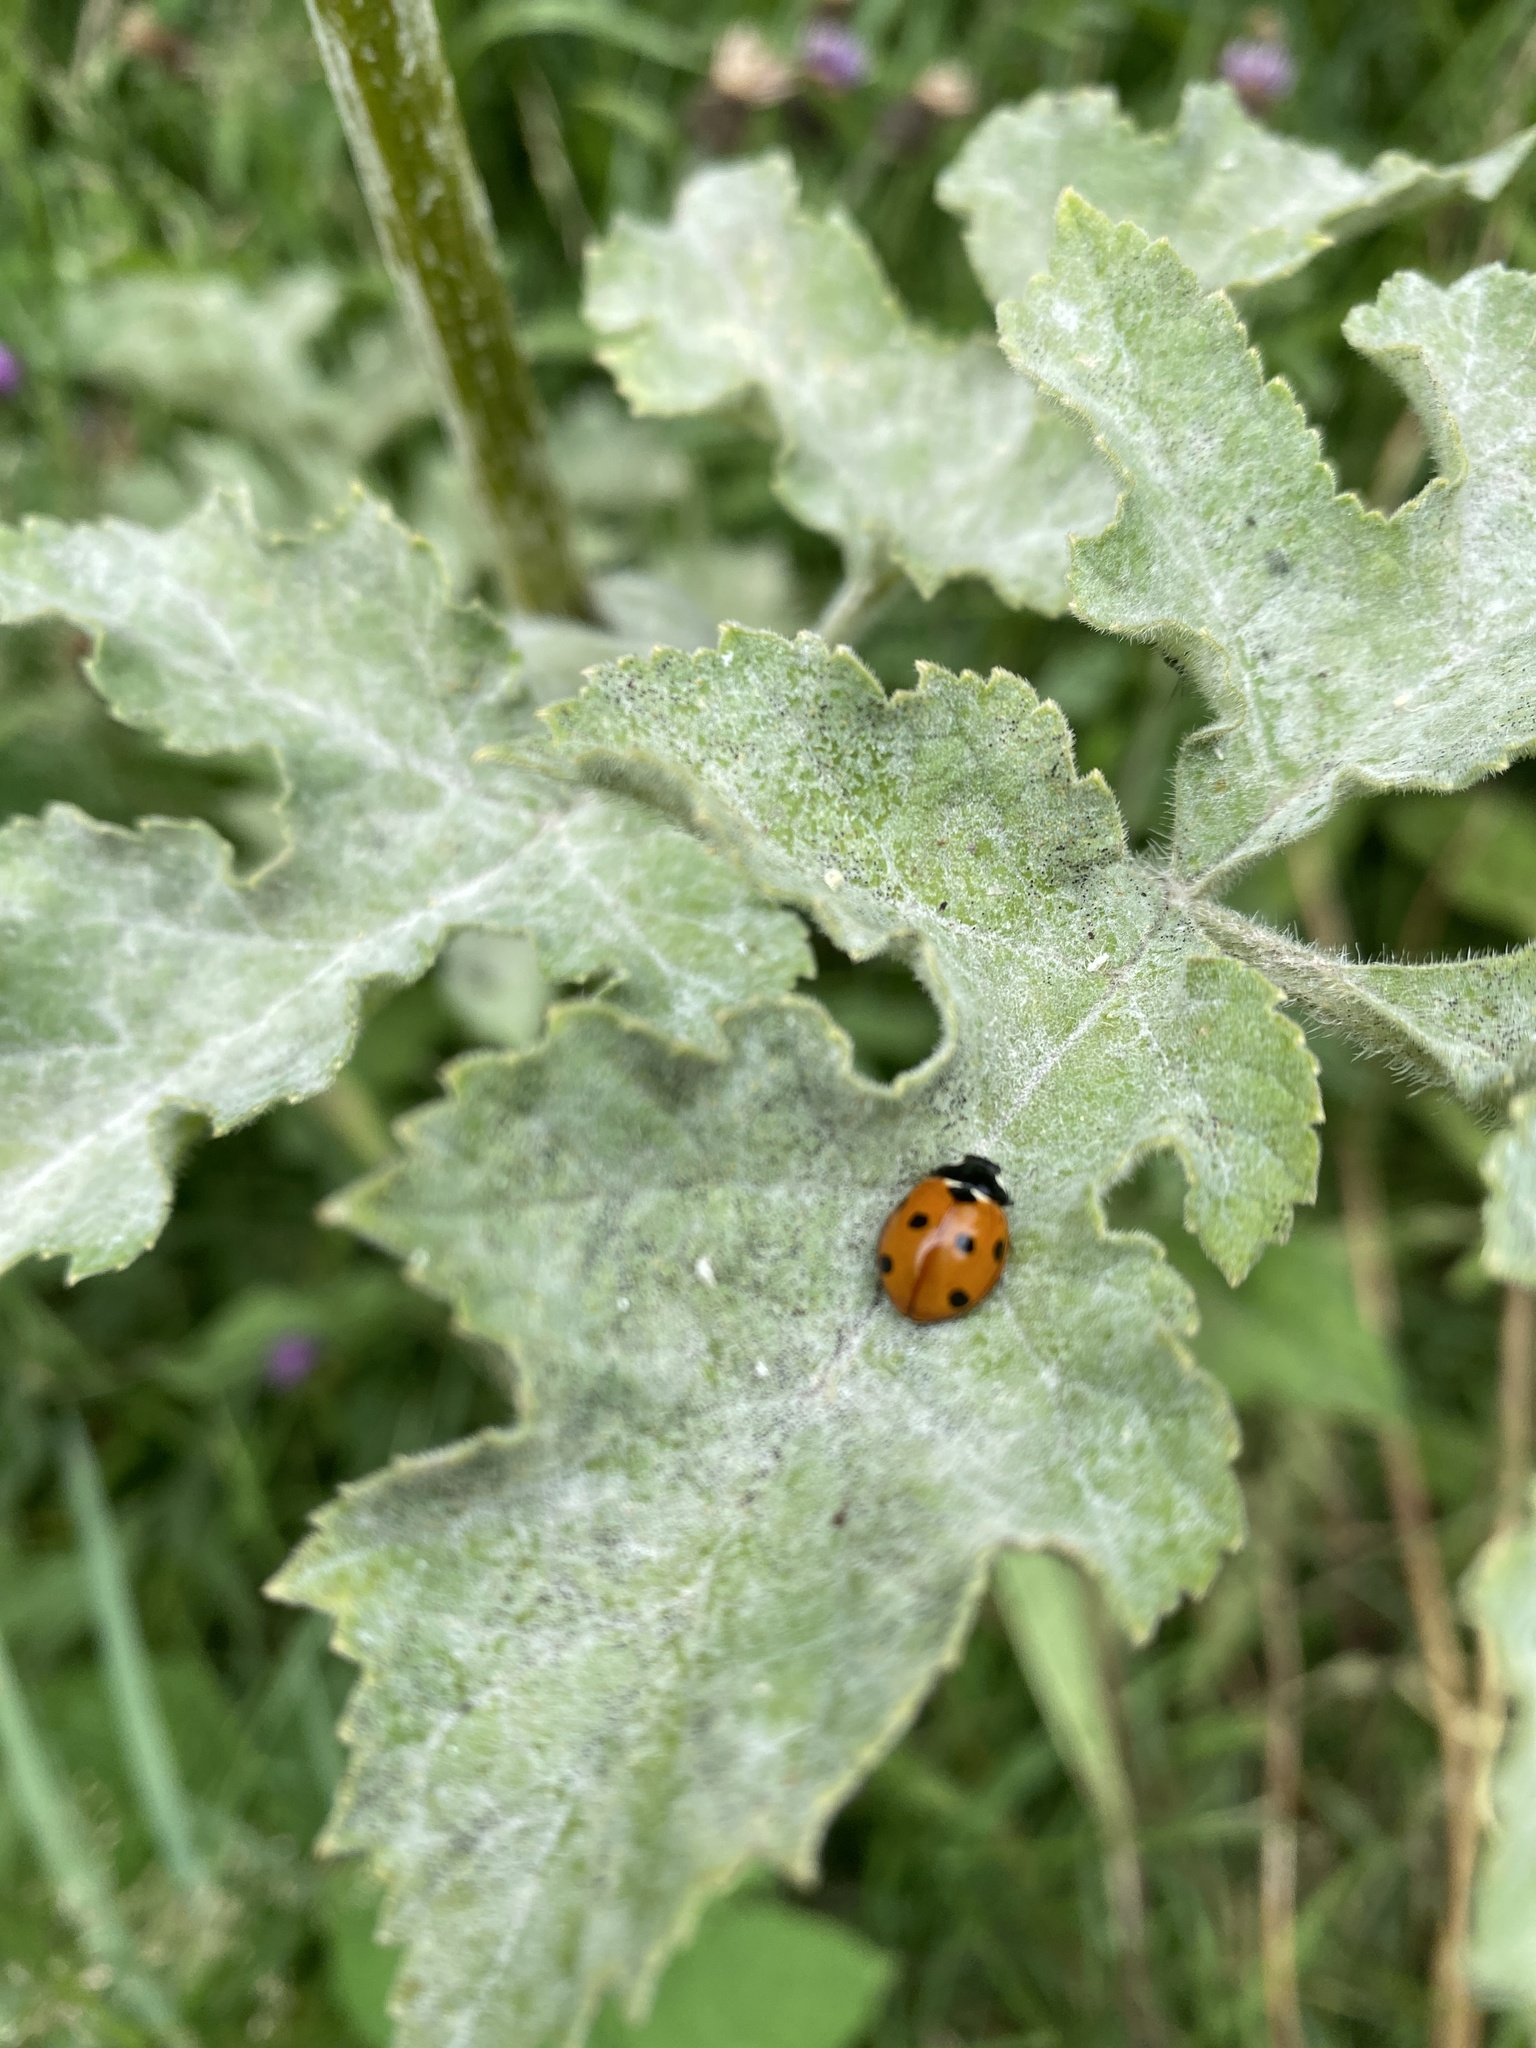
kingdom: Animalia
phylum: Arthropoda
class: Insecta
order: Coleoptera
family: Coccinellidae
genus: Coccinella
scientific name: Coccinella septempunctata
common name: Sevenspotted lady beetle
